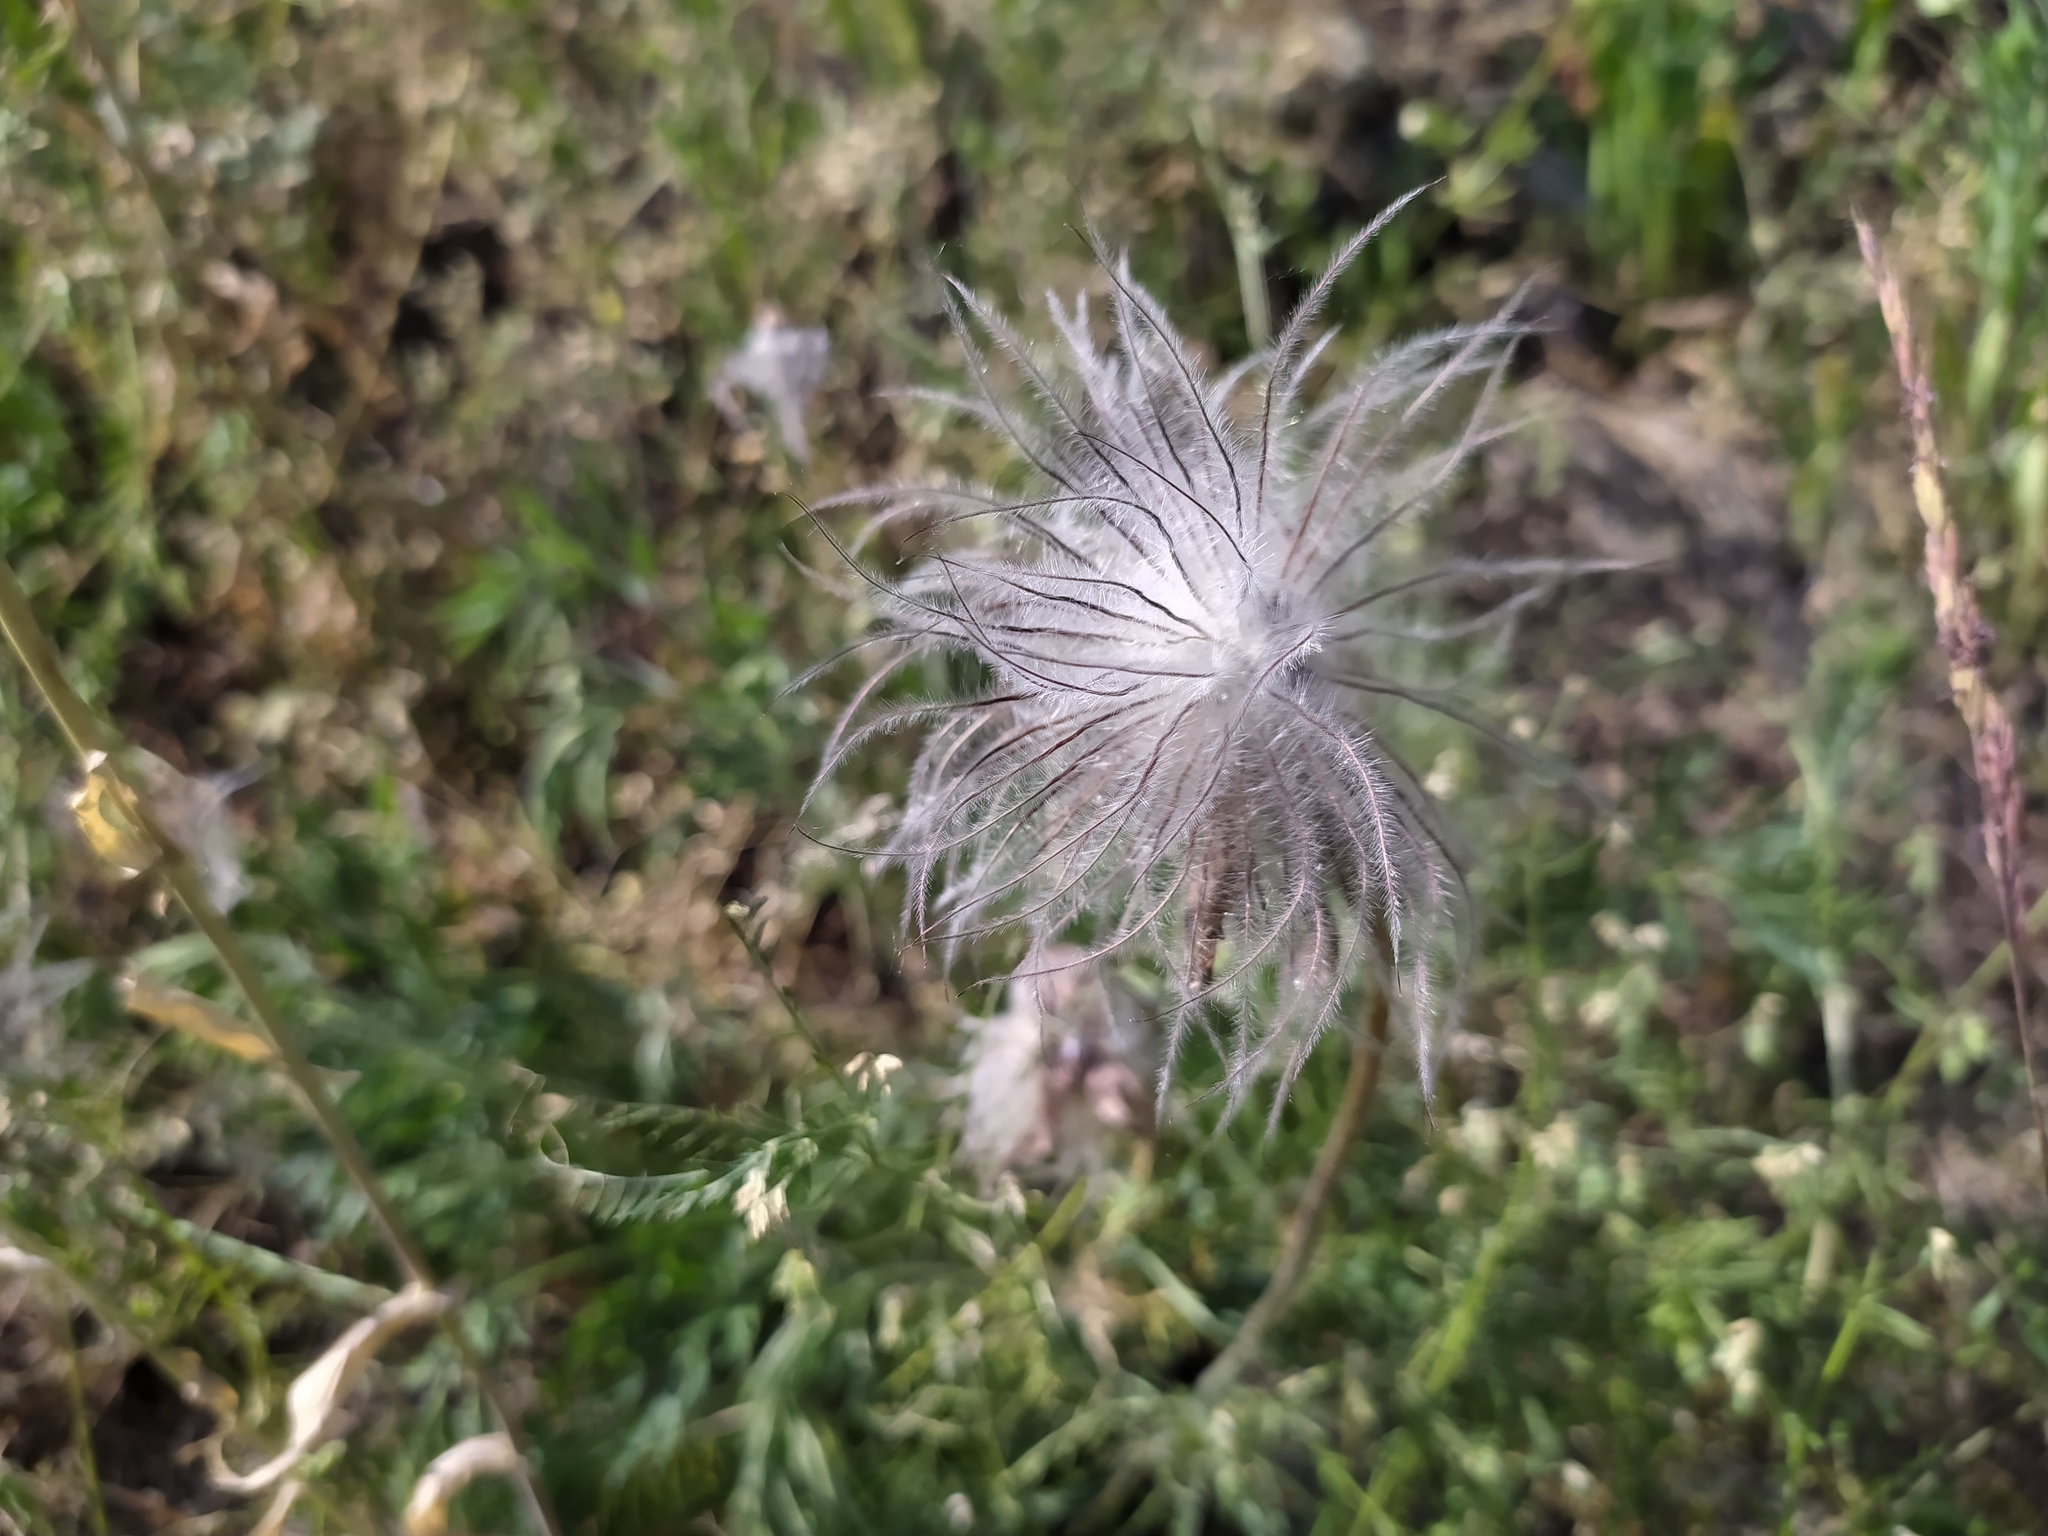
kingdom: Plantae
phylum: Tracheophyta
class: Magnoliopsida
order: Ranunculales
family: Ranunculaceae
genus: Pulsatilla
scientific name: Pulsatilla vulgaris
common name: Pasqueflower
